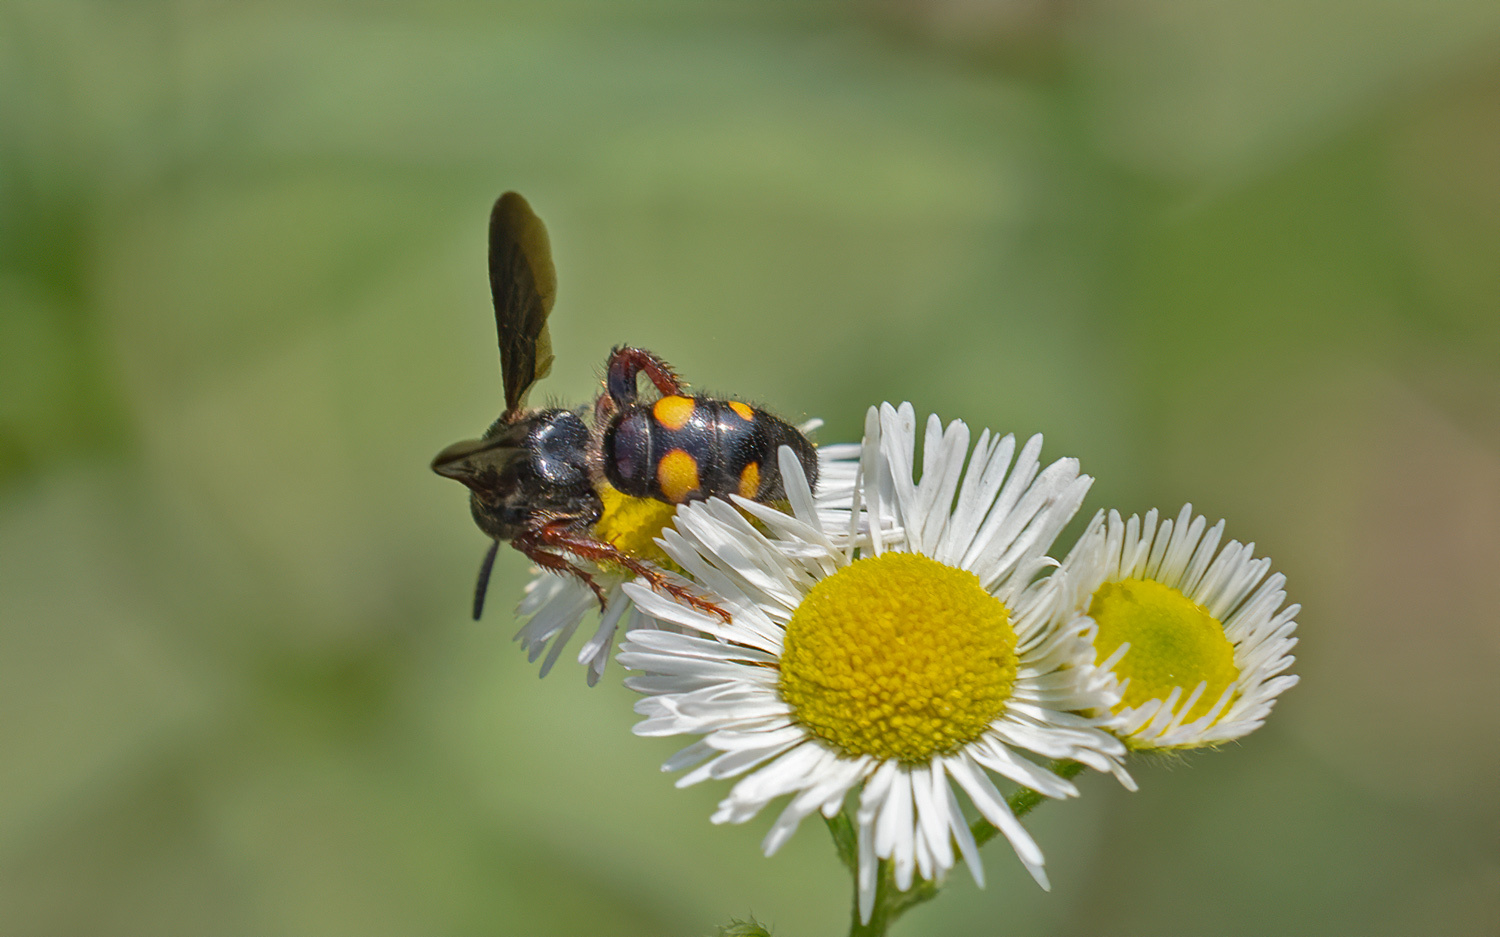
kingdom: Animalia
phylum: Arthropoda
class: Insecta
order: Hymenoptera
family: Scoliidae
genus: Scolia
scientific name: Scolia nobilitata
